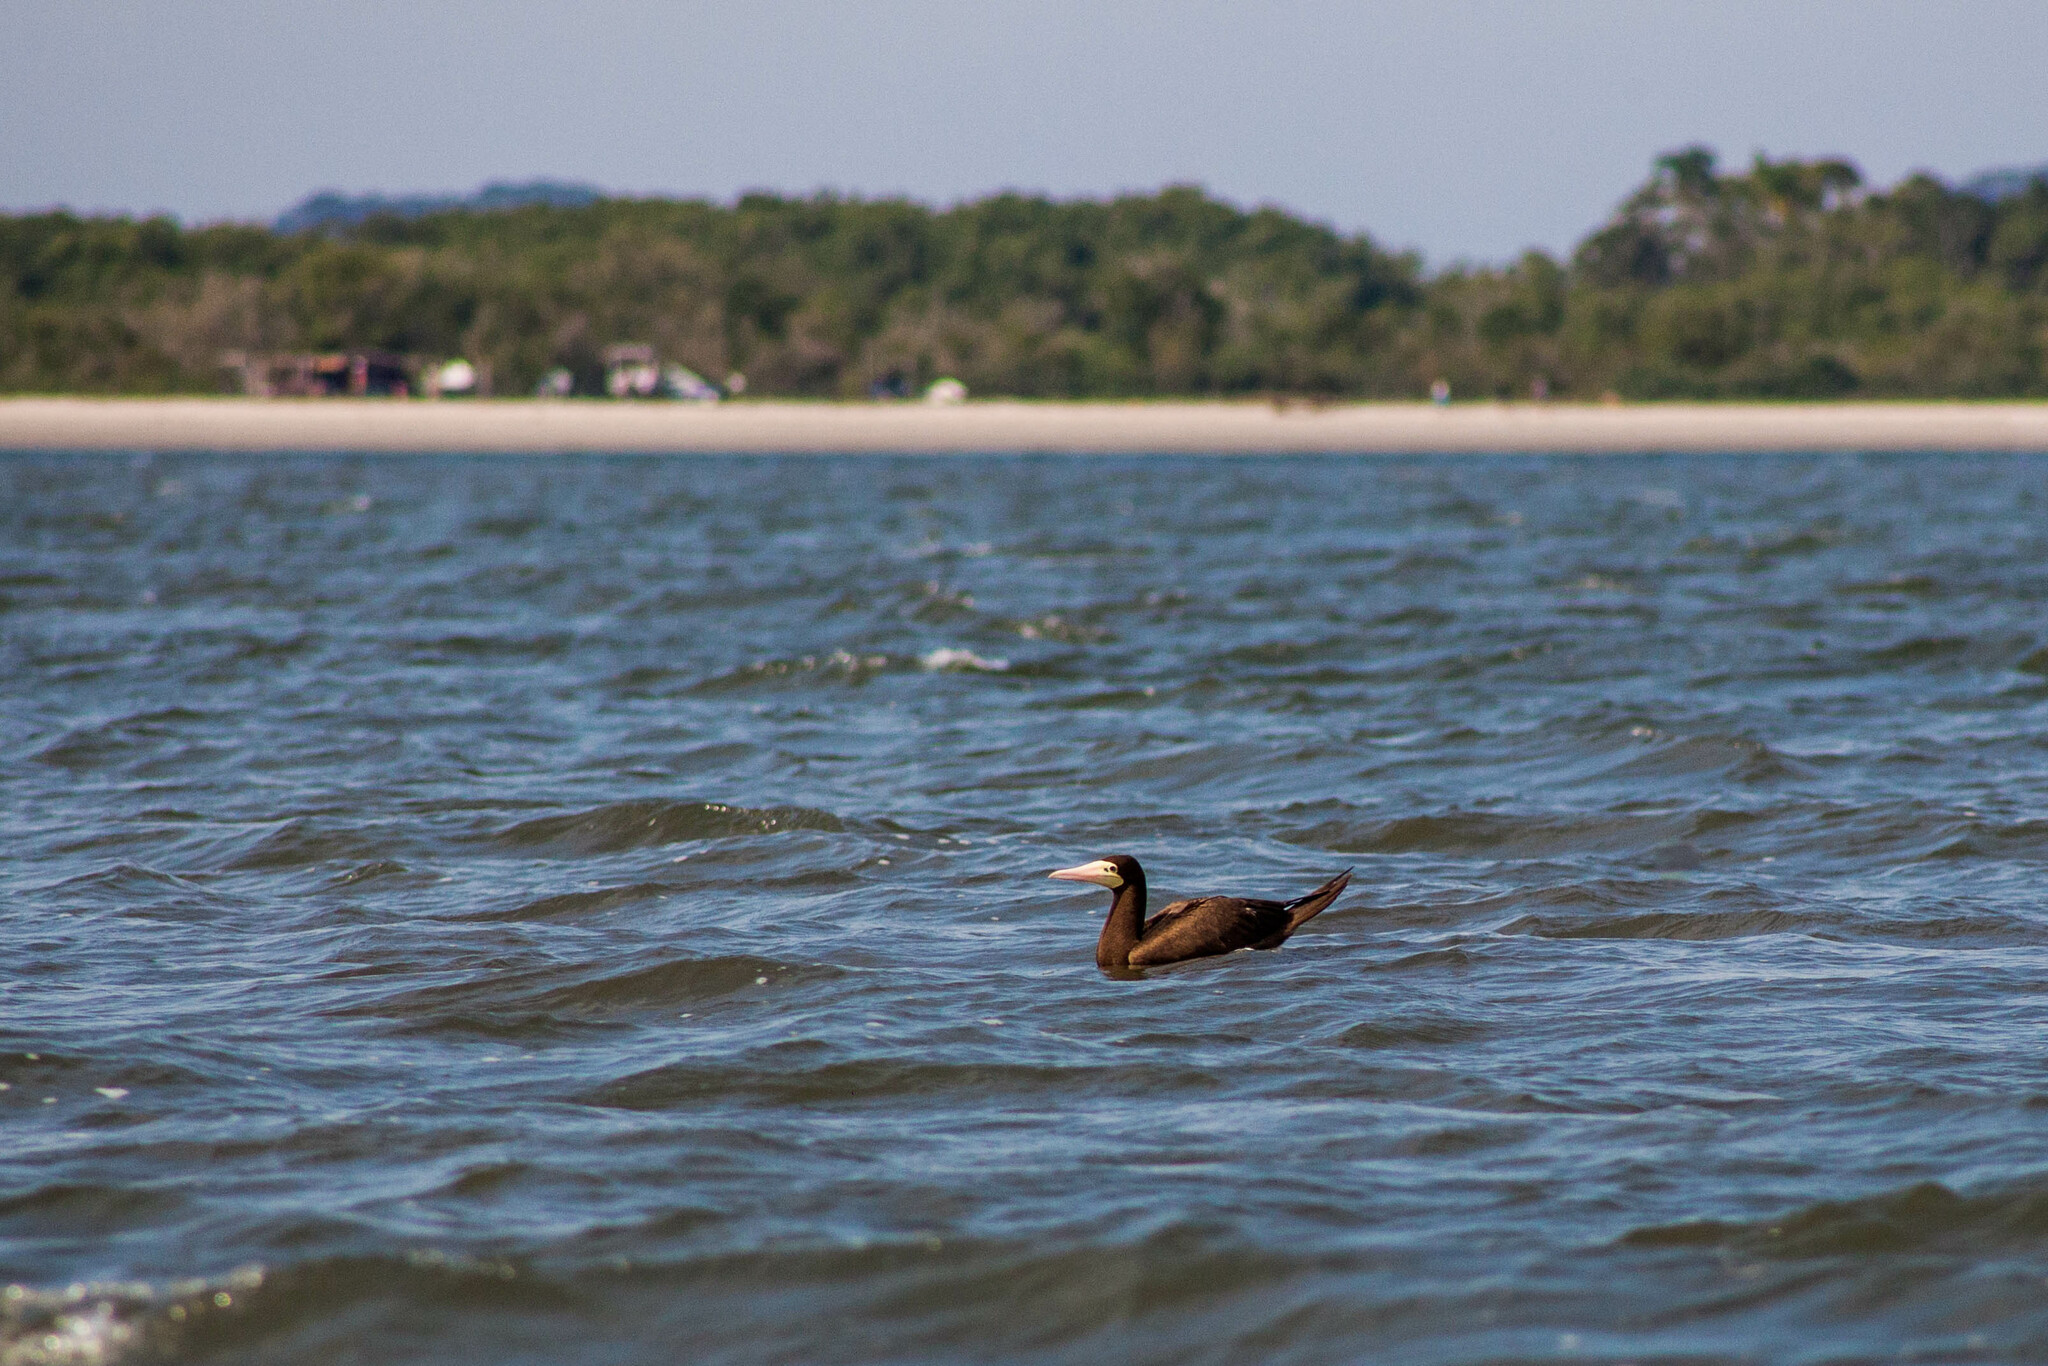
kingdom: Animalia
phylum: Chordata
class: Aves
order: Suliformes
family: Sulidae
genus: Sula
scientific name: Sula leucogaster
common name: Brown booby
